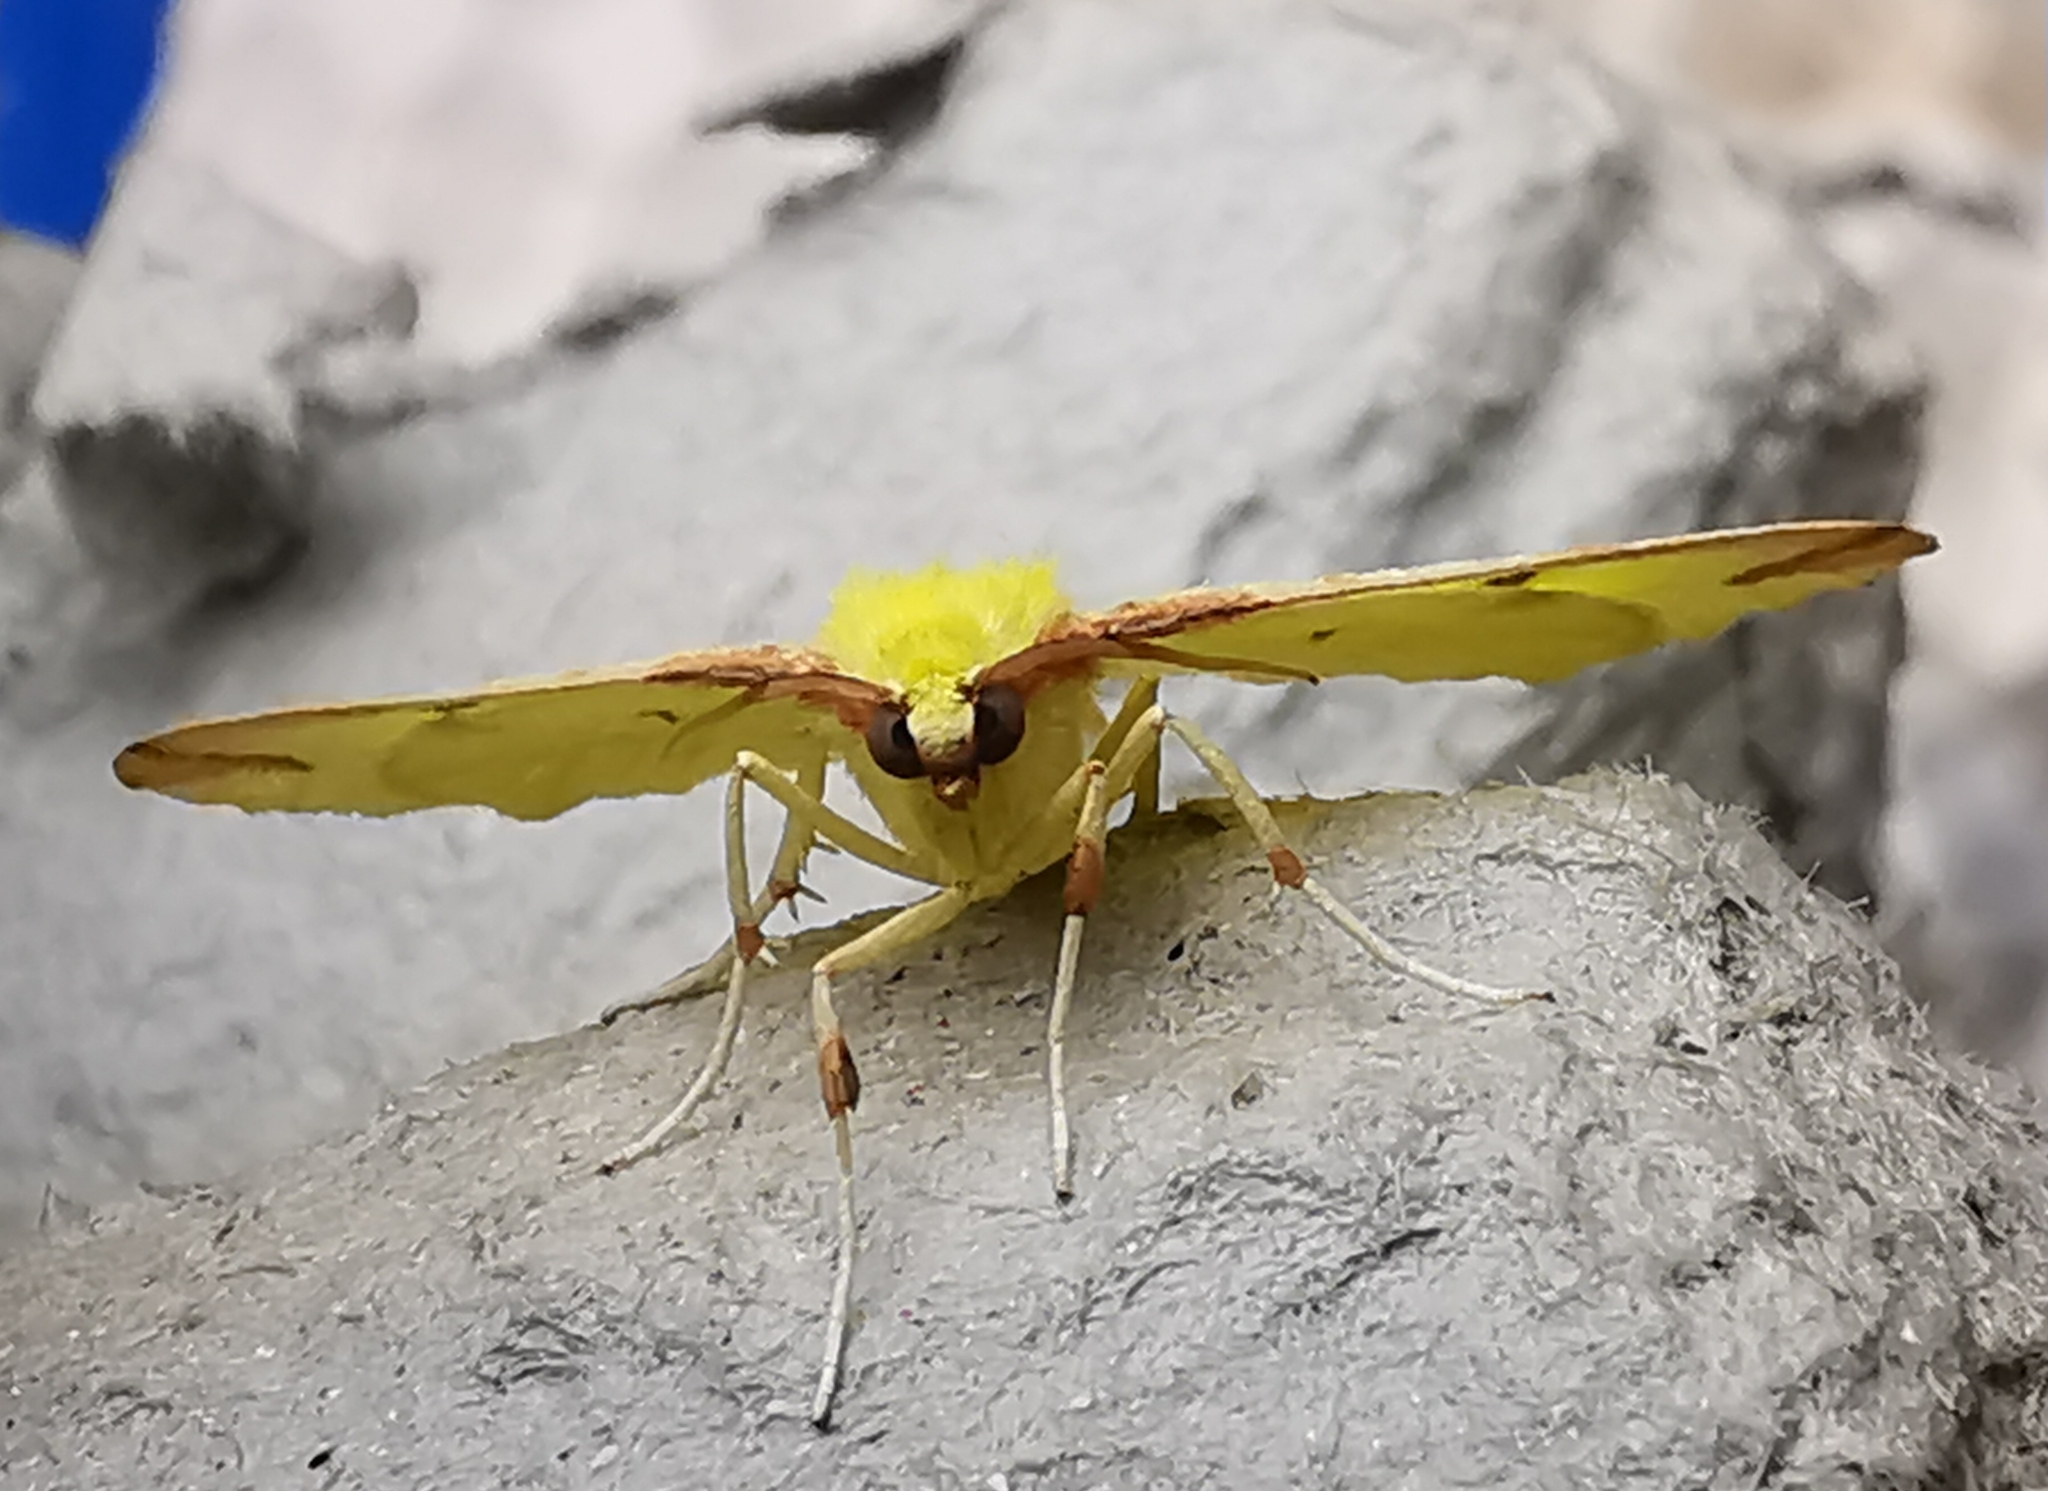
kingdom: Animalia
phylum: Arthropoda
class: Insecta
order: Lepidoptera
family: Geometridae
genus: Opisthograptis
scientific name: Opisthograptis luteolata
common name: Brimstone moth
